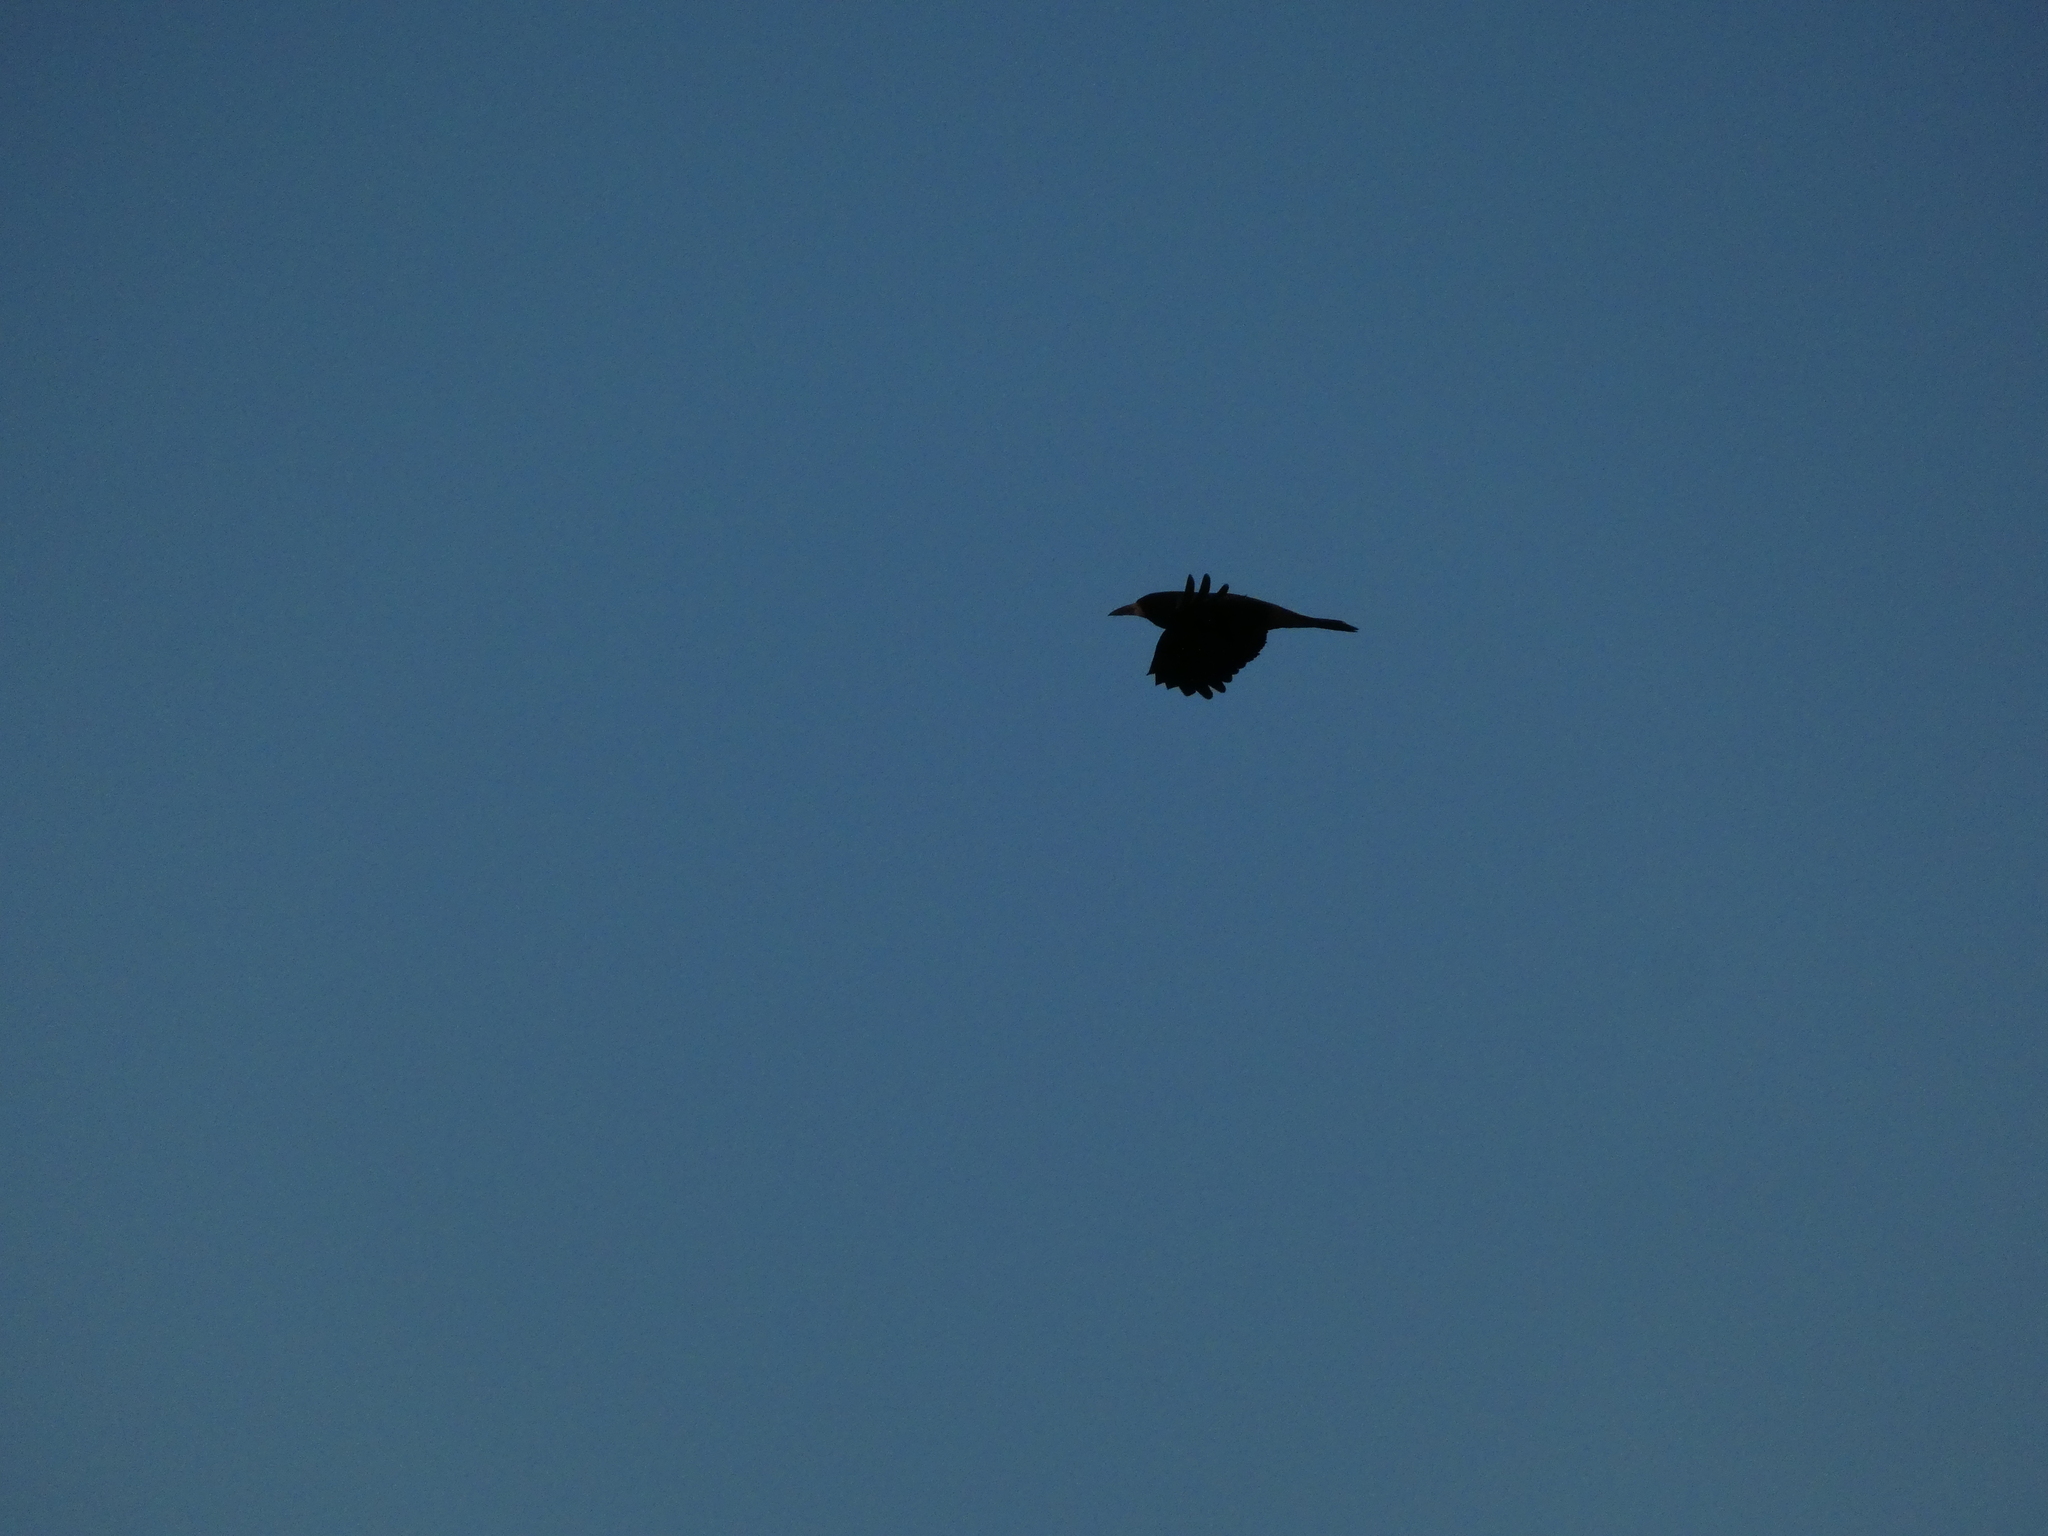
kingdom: Animalia
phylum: Chordata
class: Aves
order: Passeriformes
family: Corvidae
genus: Corvus
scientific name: Corvus frugilegus
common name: Rook
